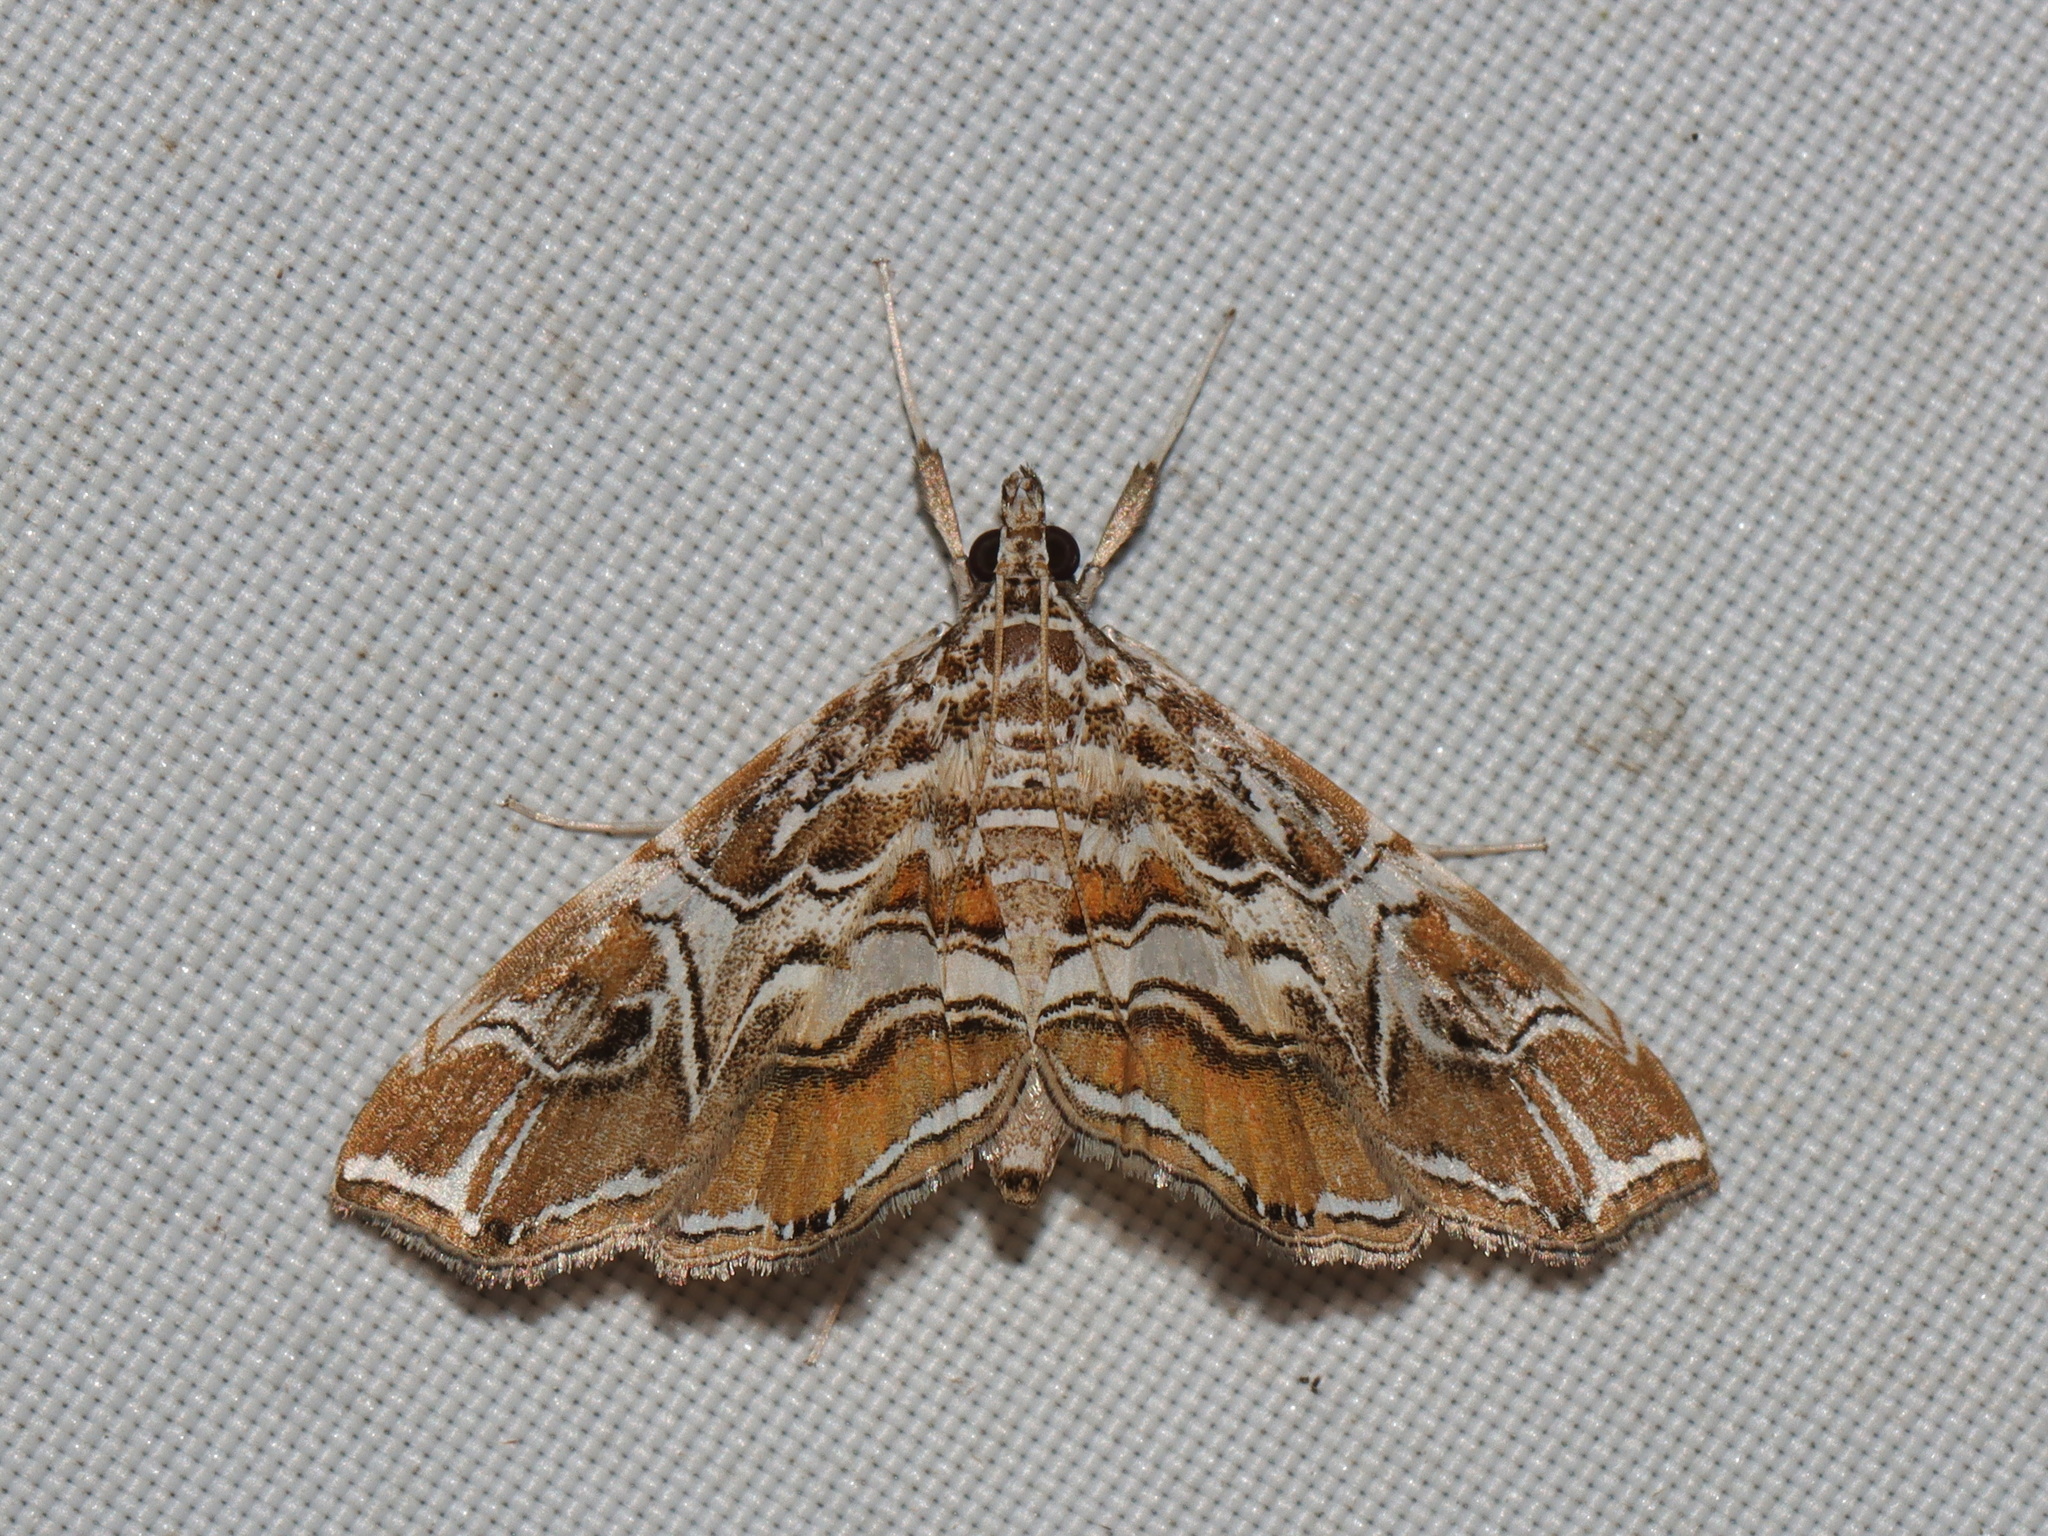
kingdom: Animalia
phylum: Arthropoda
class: Insecta
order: Lepidoptera
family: Crambidae
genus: Paracymoriza
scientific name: Paracymoriza vagalis
